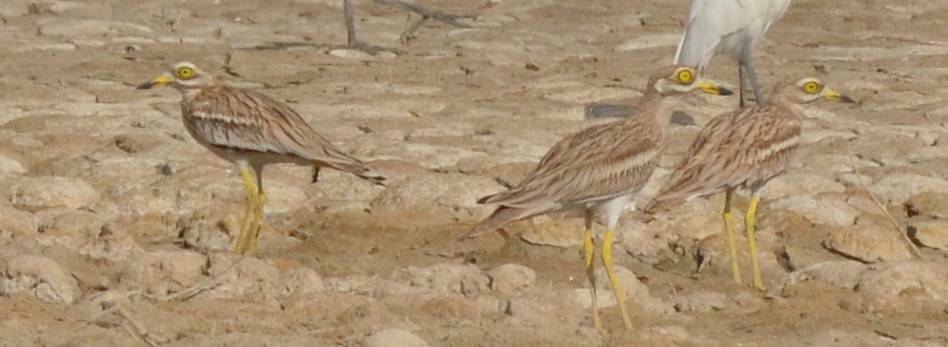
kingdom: Animalia
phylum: Chordata
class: Aves
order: Charadriiformes
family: Burhinidae
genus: Burhinus
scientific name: Burhinus oedicnemus
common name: Eurasian stone-curlew
